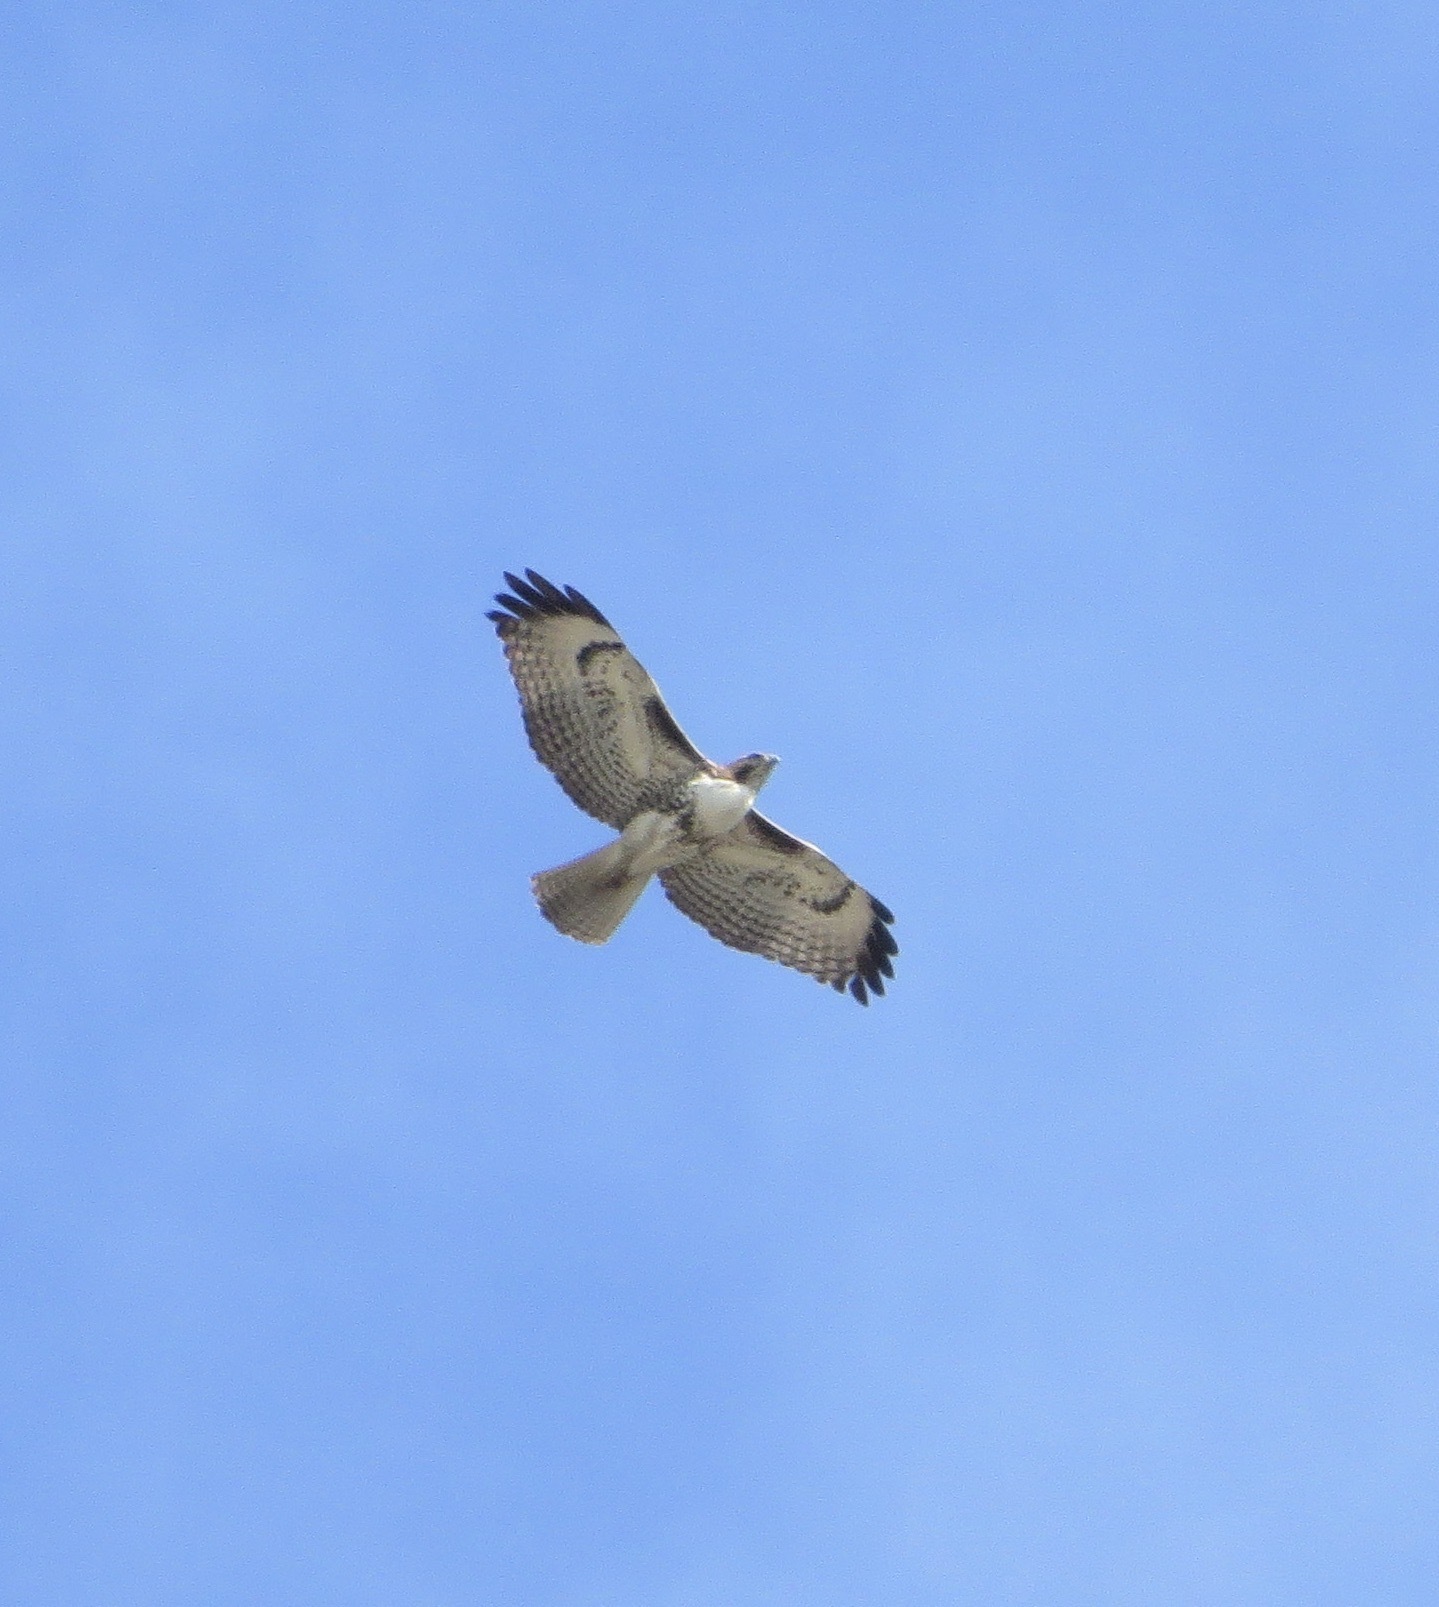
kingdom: Animalia
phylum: Chordata
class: Aves
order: Accipitriformes
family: Accipitridae
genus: Buteo
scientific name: Buteo jamaicensis
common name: Red-tailed hawk
